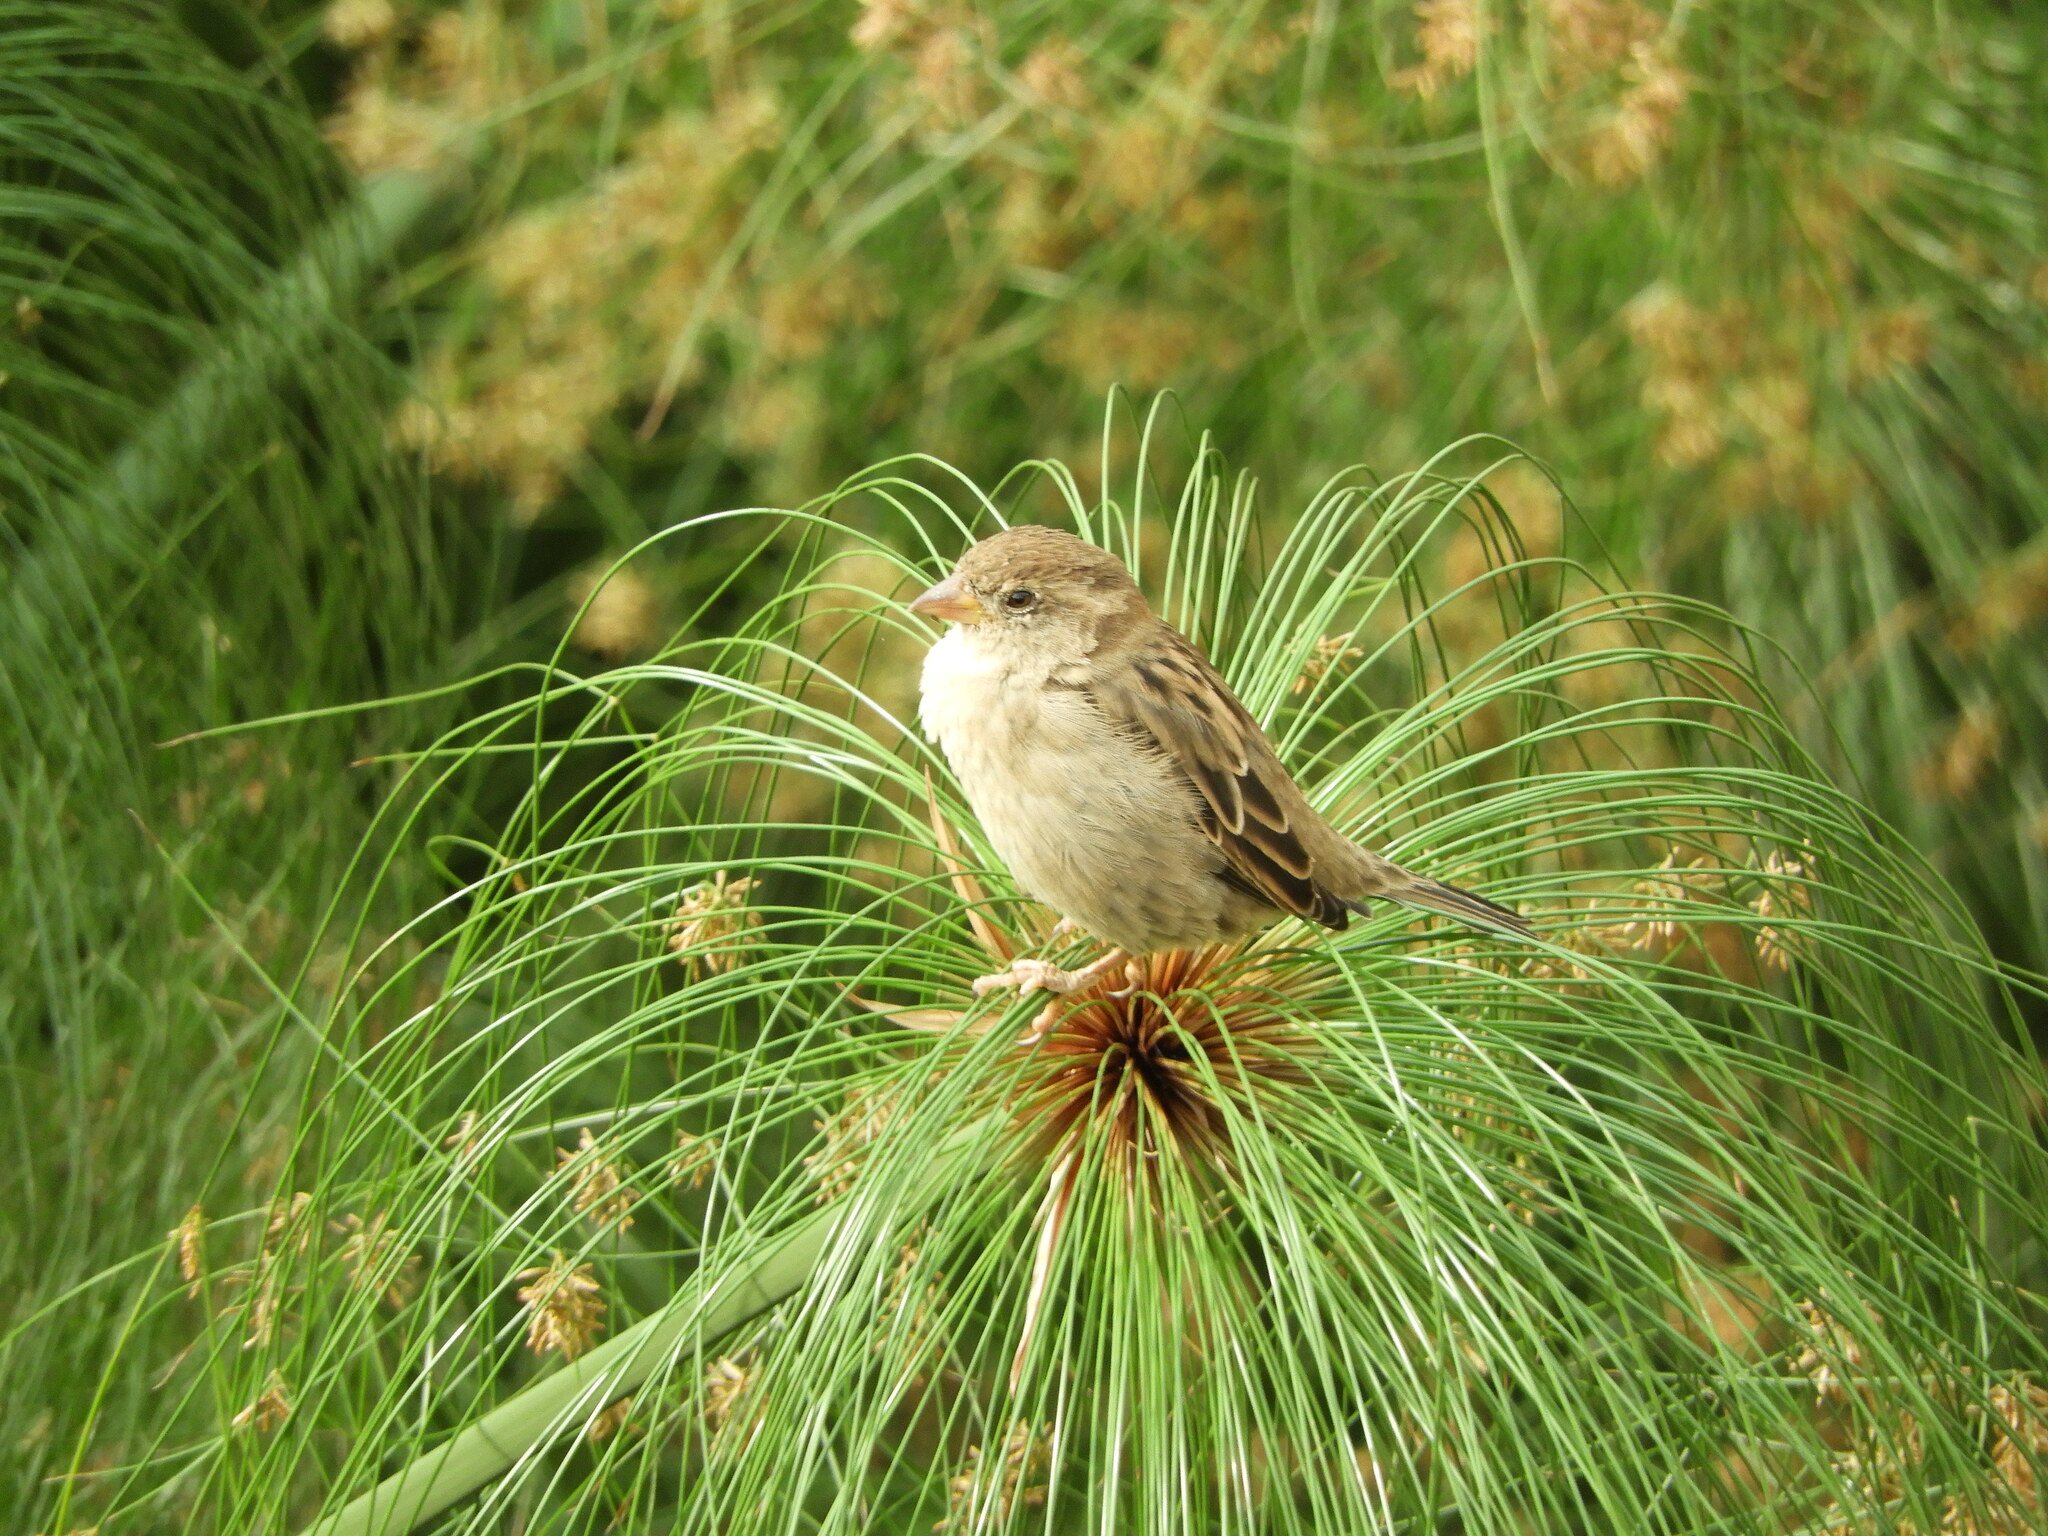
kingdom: Animalia
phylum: Chordata
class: Aves
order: Passeriformes
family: Passeridae
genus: Passer
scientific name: Passer italiae
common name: Italian sparrow
